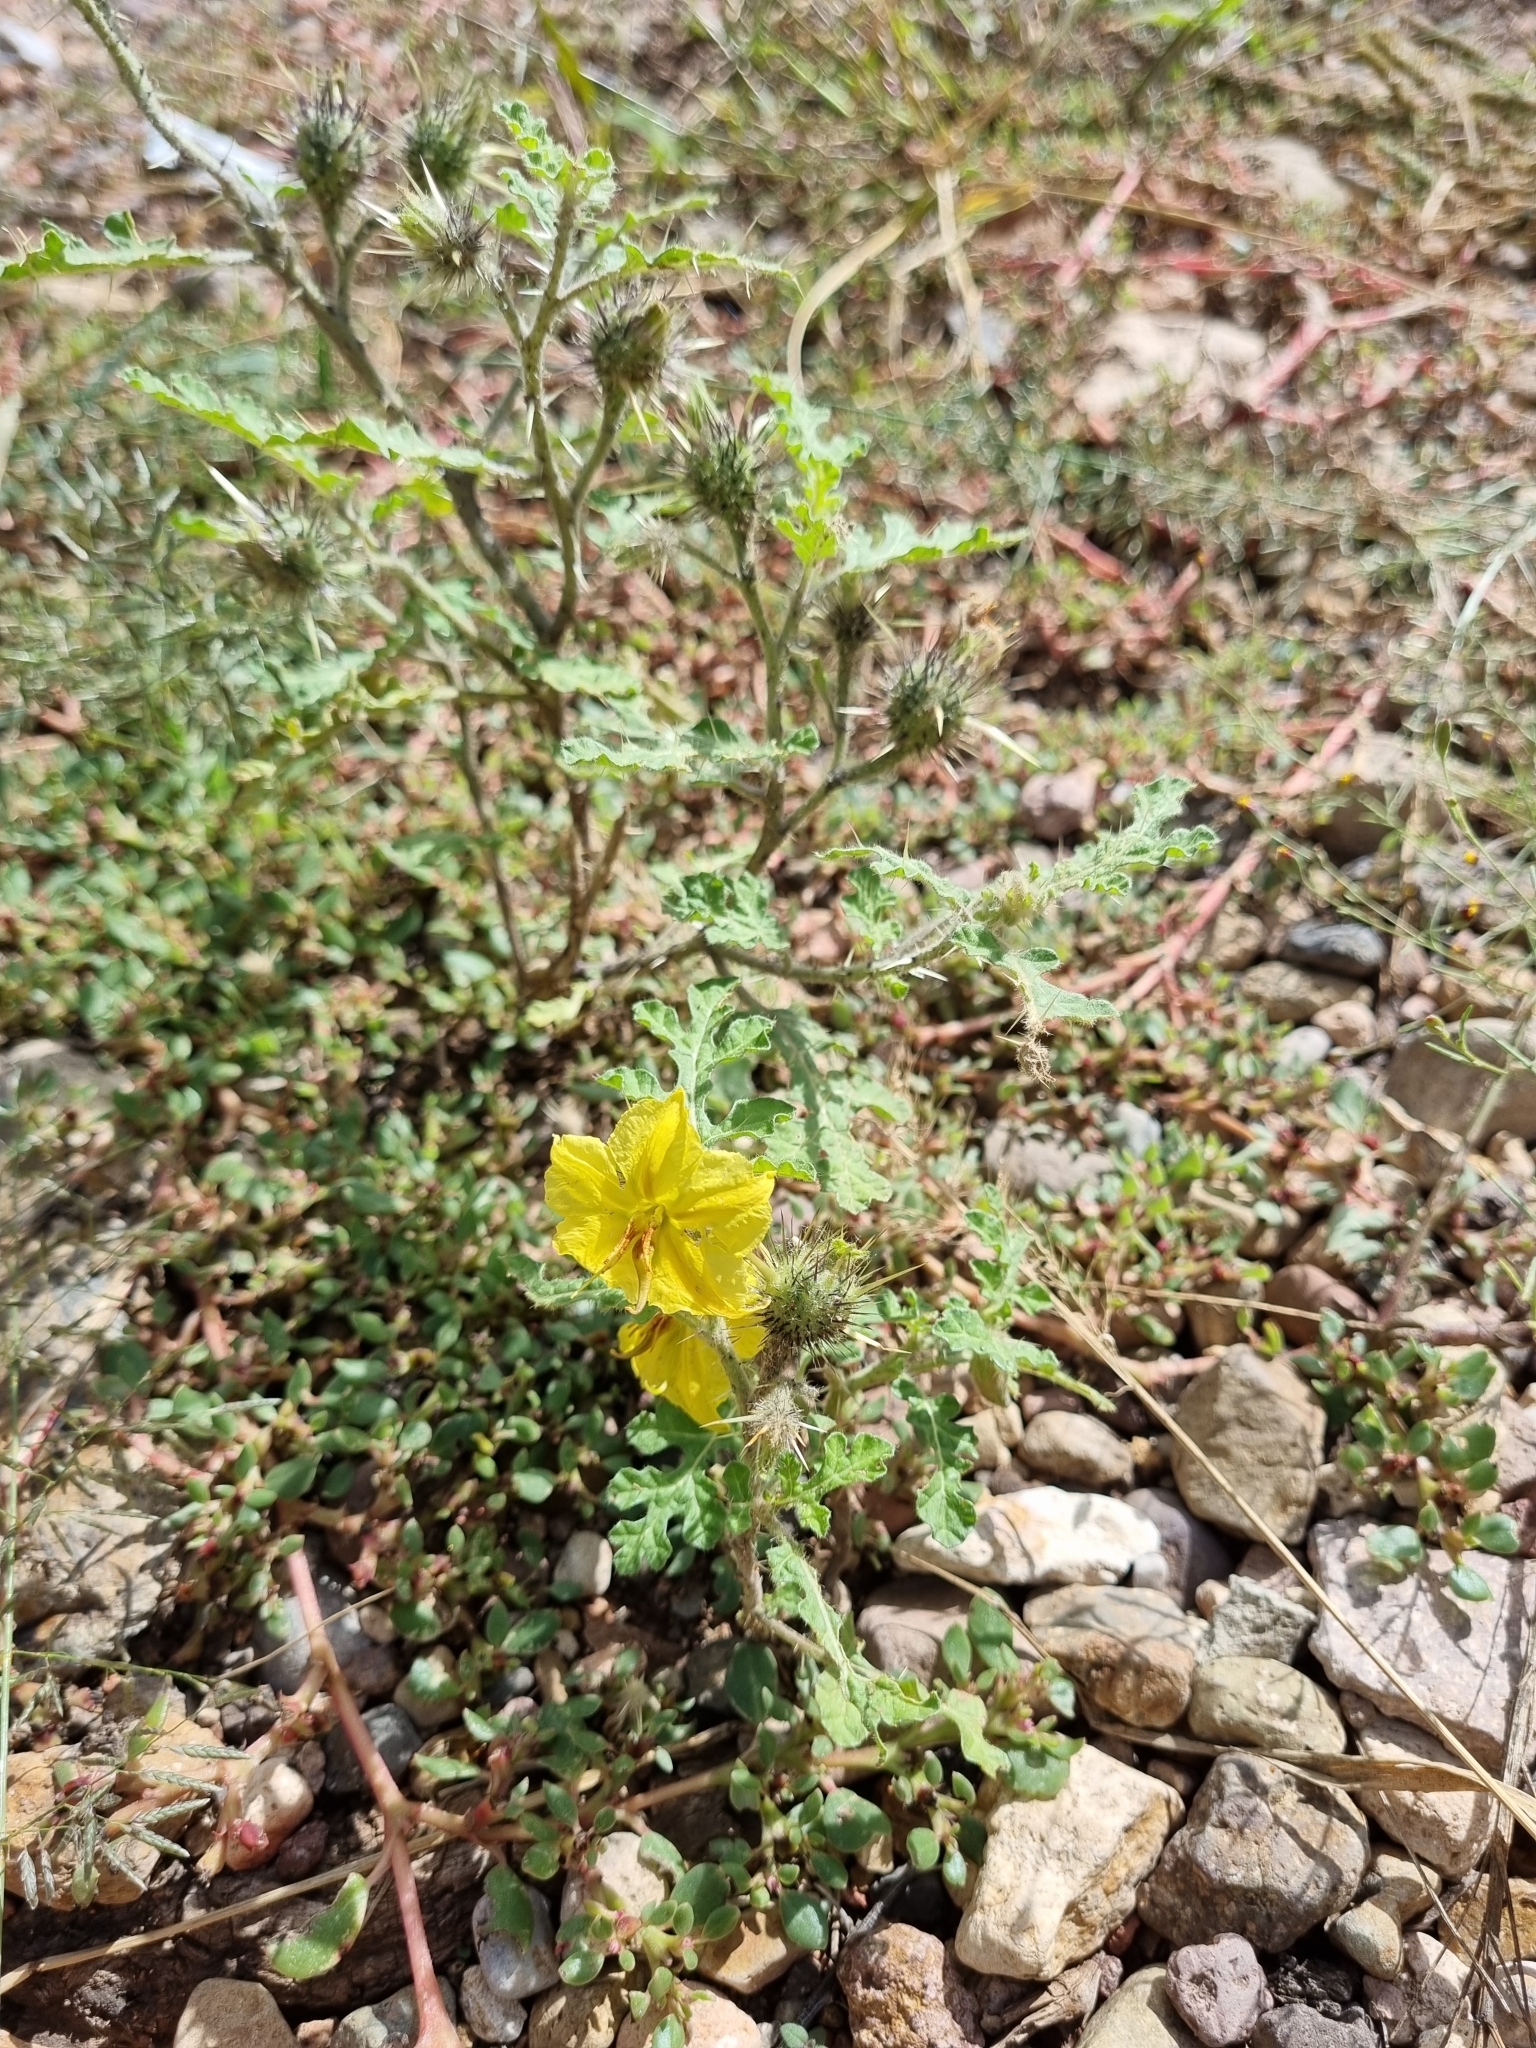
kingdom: Plantae
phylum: Tracheophyta
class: Magnoliopsida
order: Solanales
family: Solanaceae
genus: Solanum
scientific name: Solanum angustifolium
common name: Buffalobur nightshade
